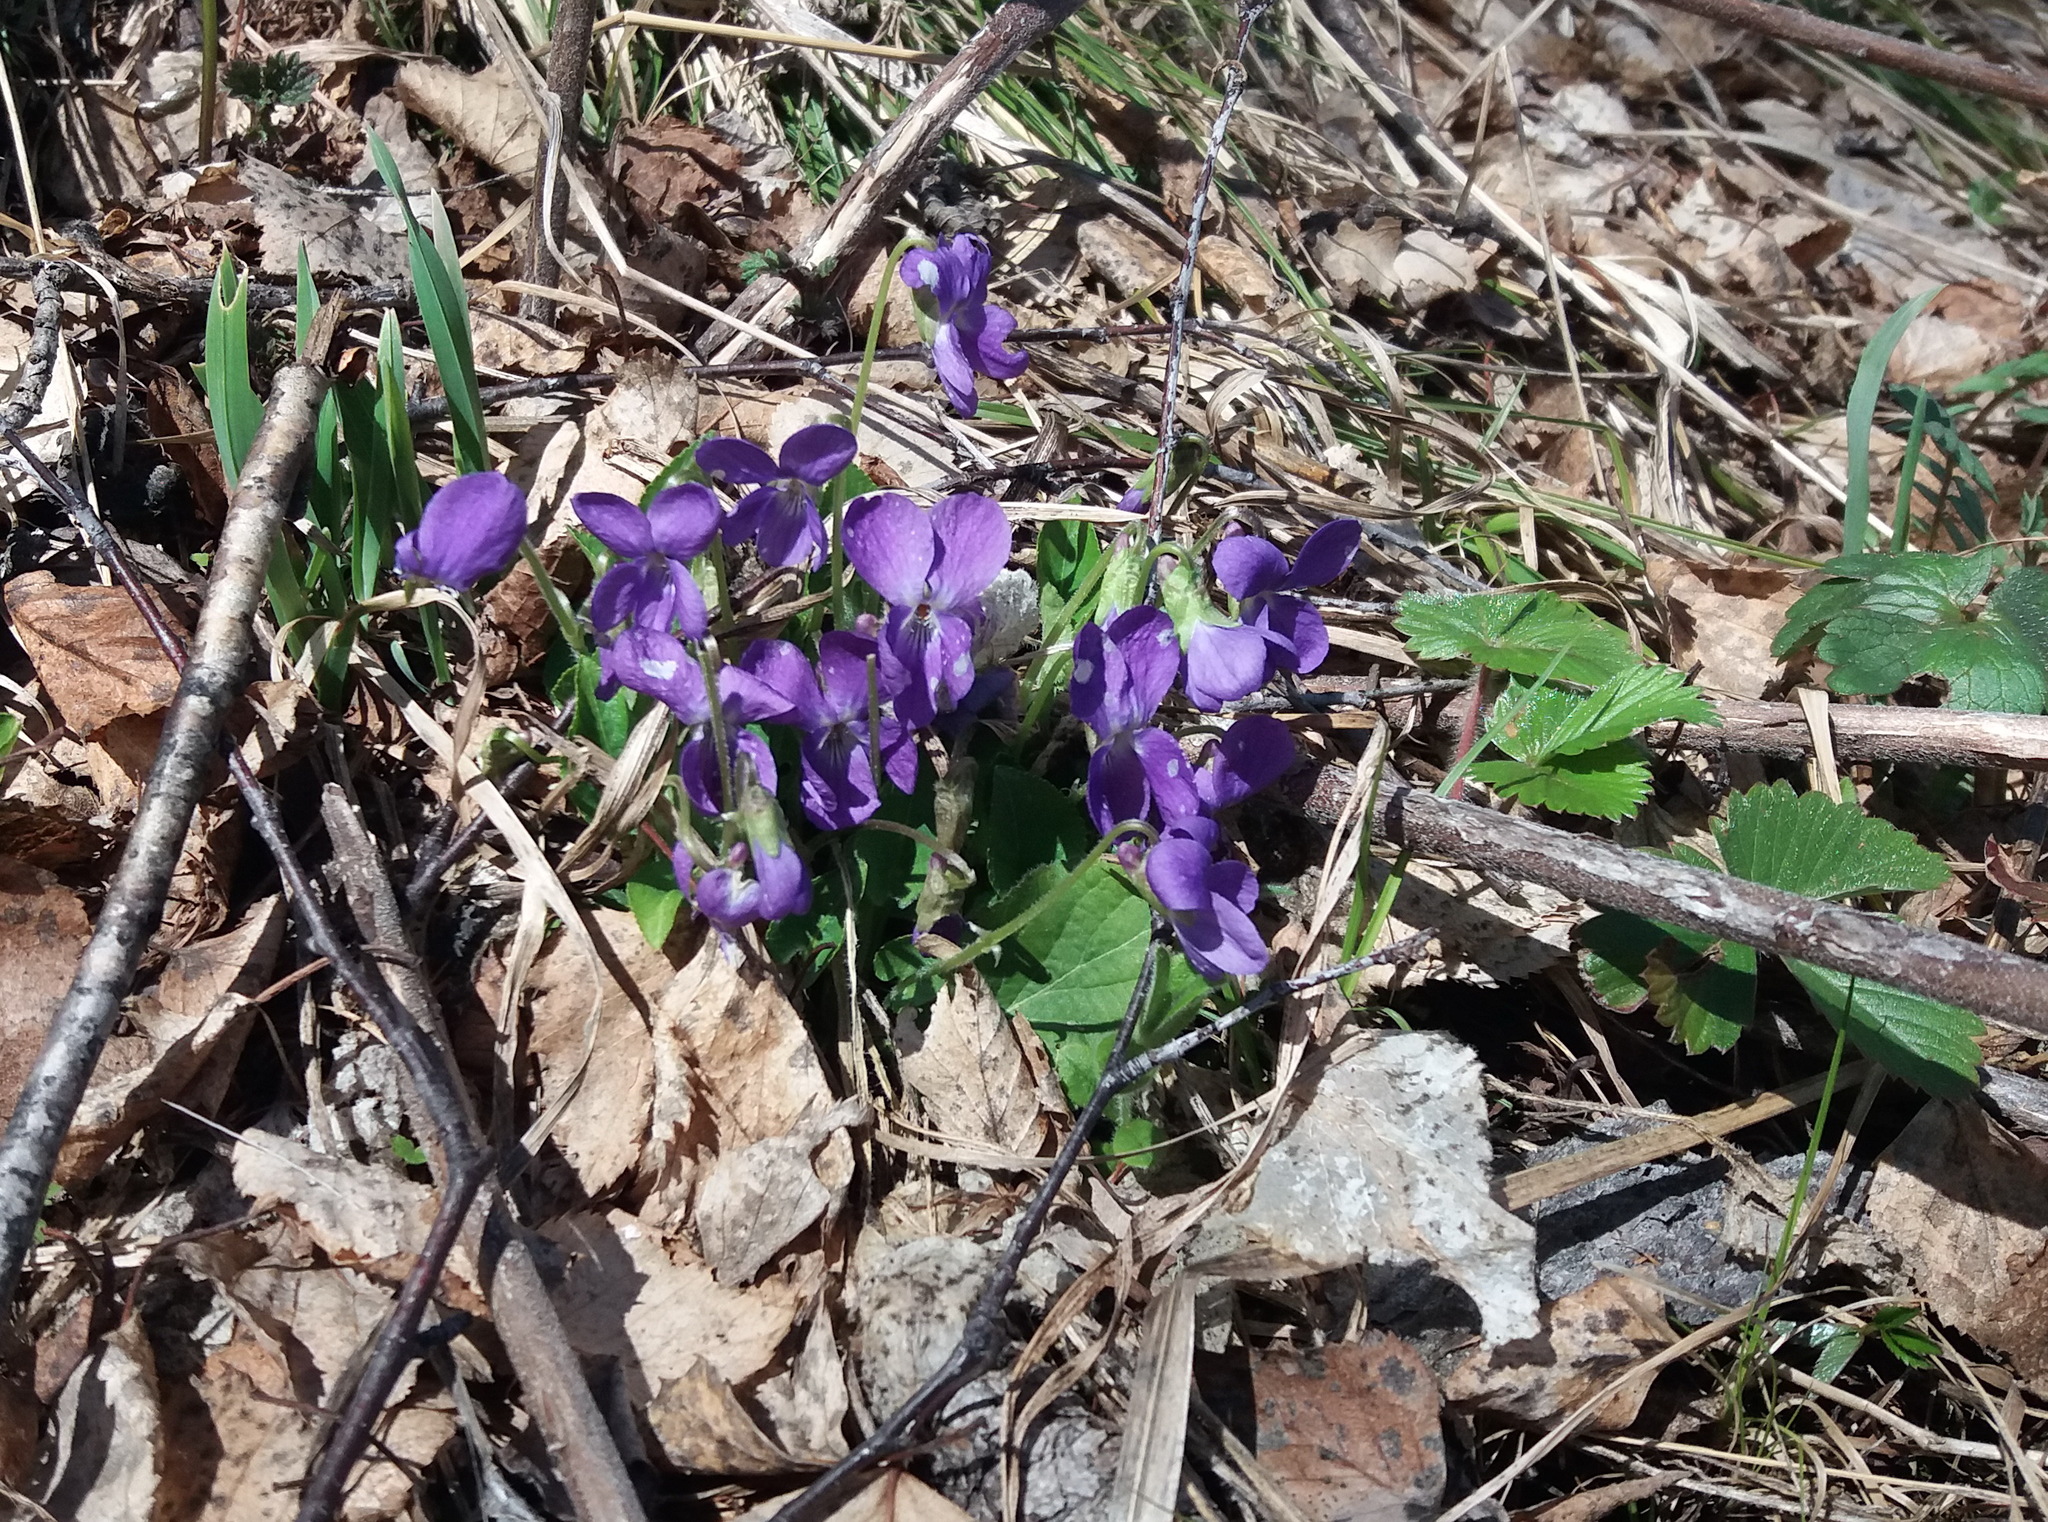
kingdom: Plantae
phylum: Tracheophyta
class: Magnoliopsida
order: Malpighiales
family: Violaceae
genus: Viola
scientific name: Viola hirta
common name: Hairy violet
